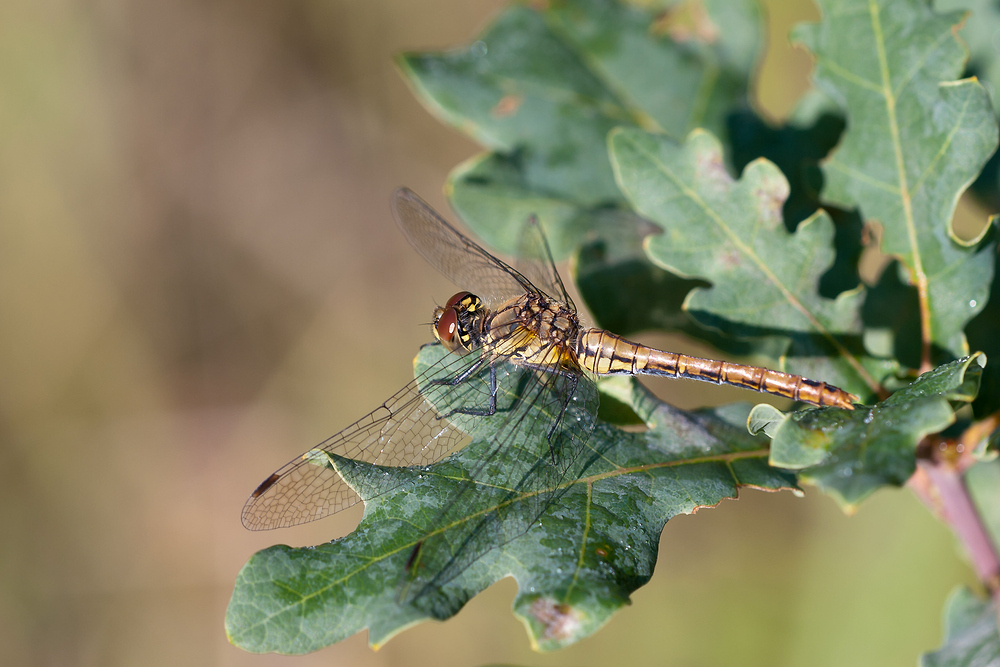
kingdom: Animalia
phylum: Arthropoda
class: Insecta
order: Odonata
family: Libellulidae
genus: Sympetrum
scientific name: Sympetrum sanguineum
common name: Ruddy darter
